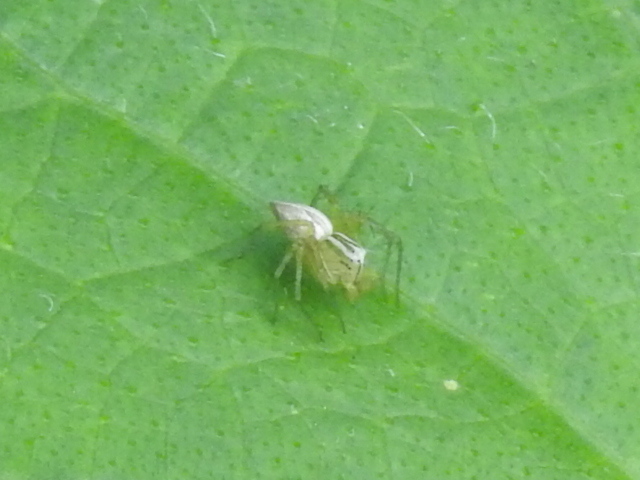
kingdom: Animalia
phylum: Arthropoda
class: Arachnida
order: Araneae
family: Oxyopidae
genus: Oxyopes
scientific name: Oxyopes salticus
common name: Lynx spiders
